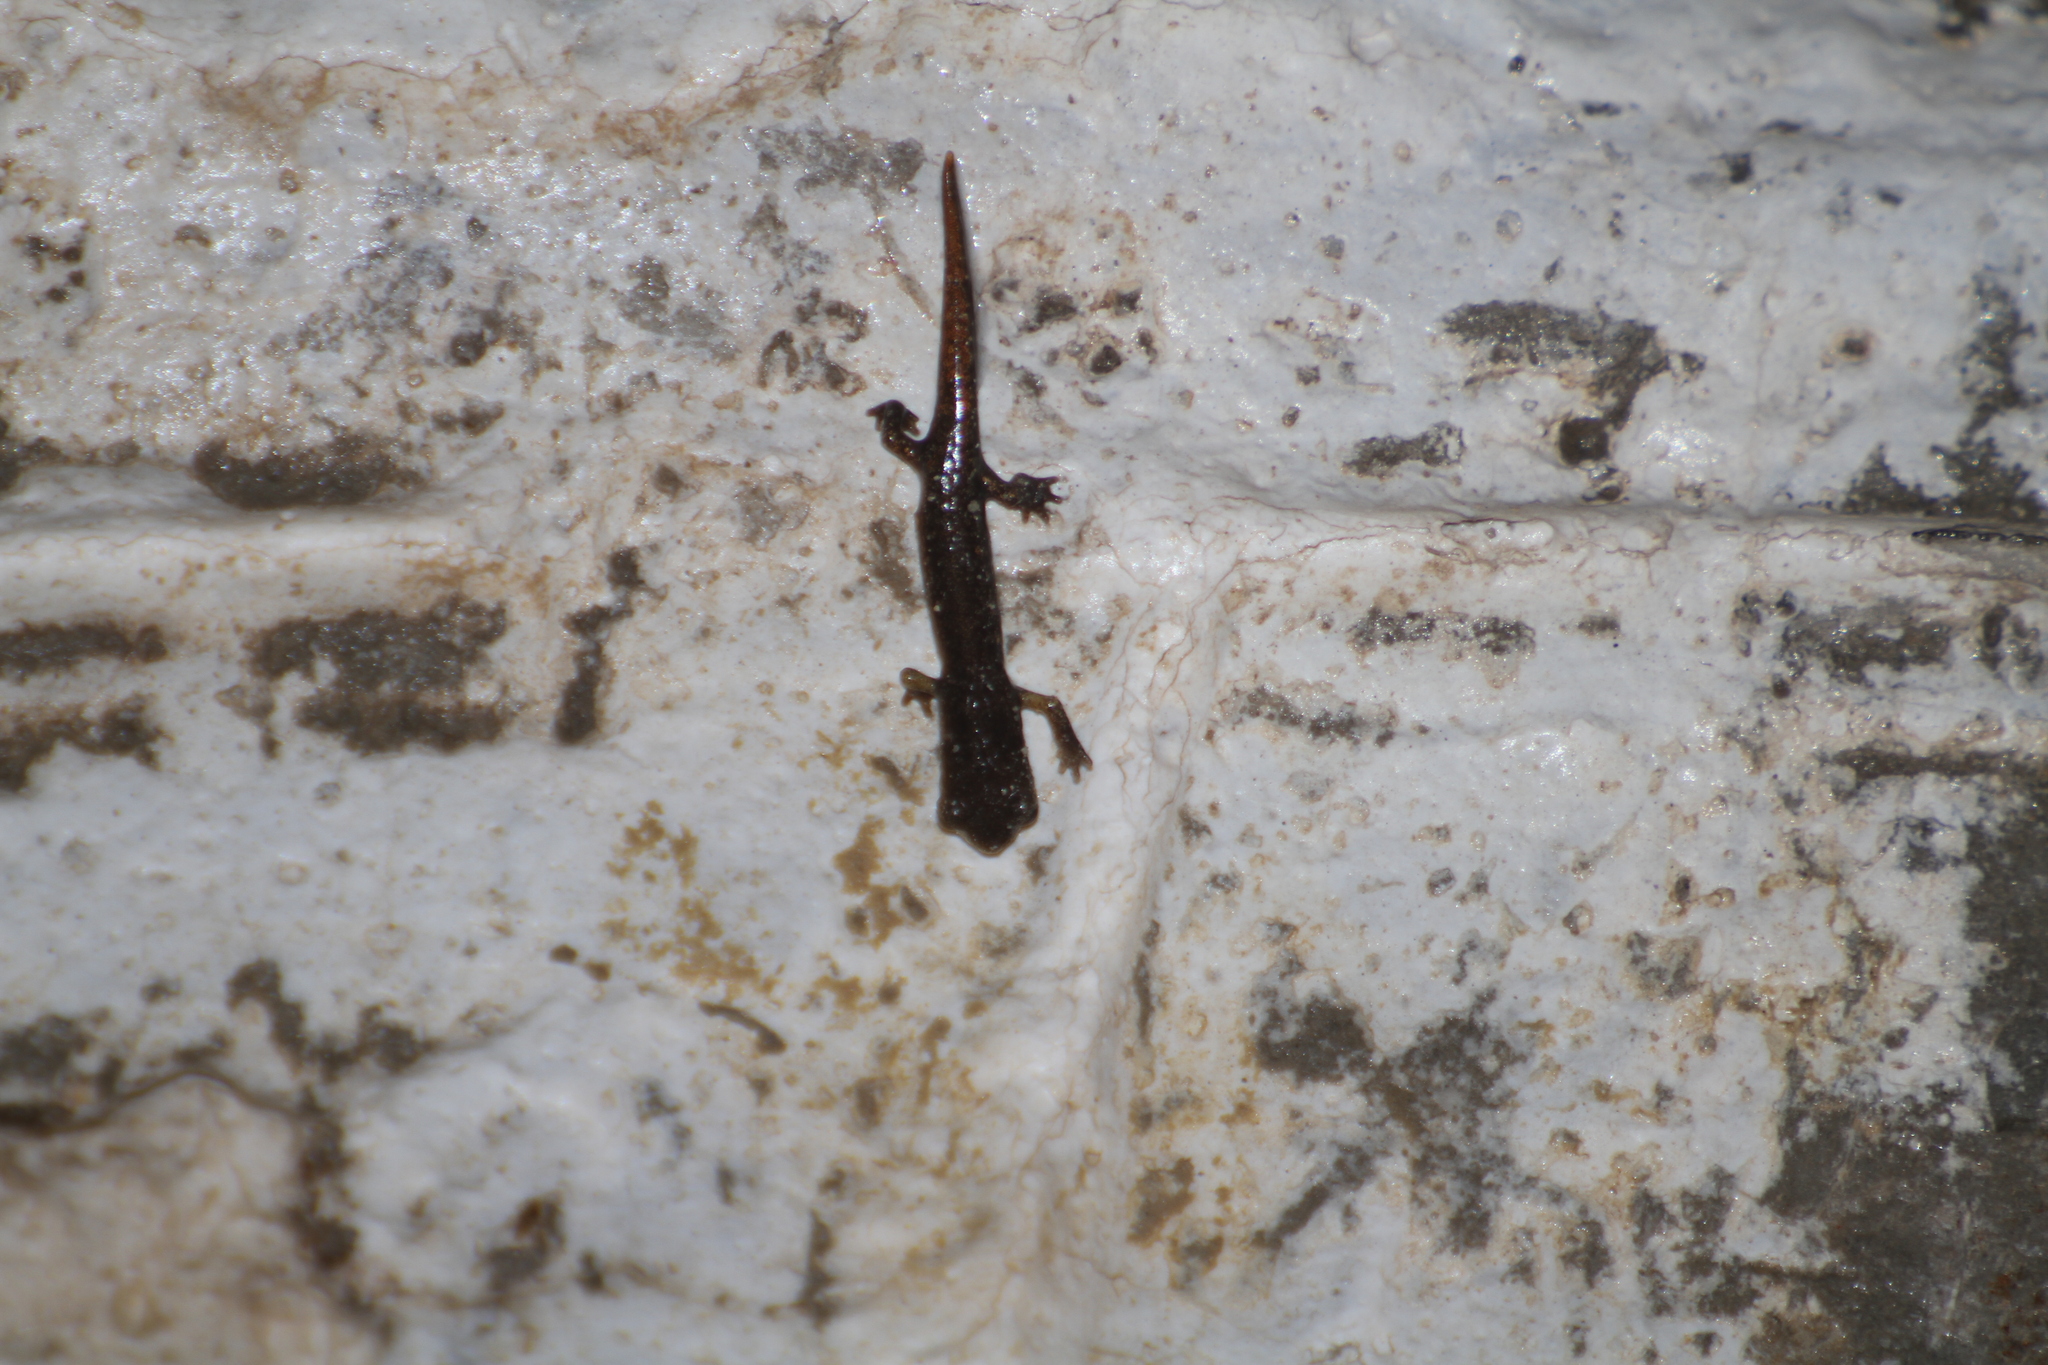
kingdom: Animalia
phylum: Chordata
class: Amphibia
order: Caudata
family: Plethodontidae
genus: Speleomantes
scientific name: Speleomantes strinatii
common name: French cave salamander
